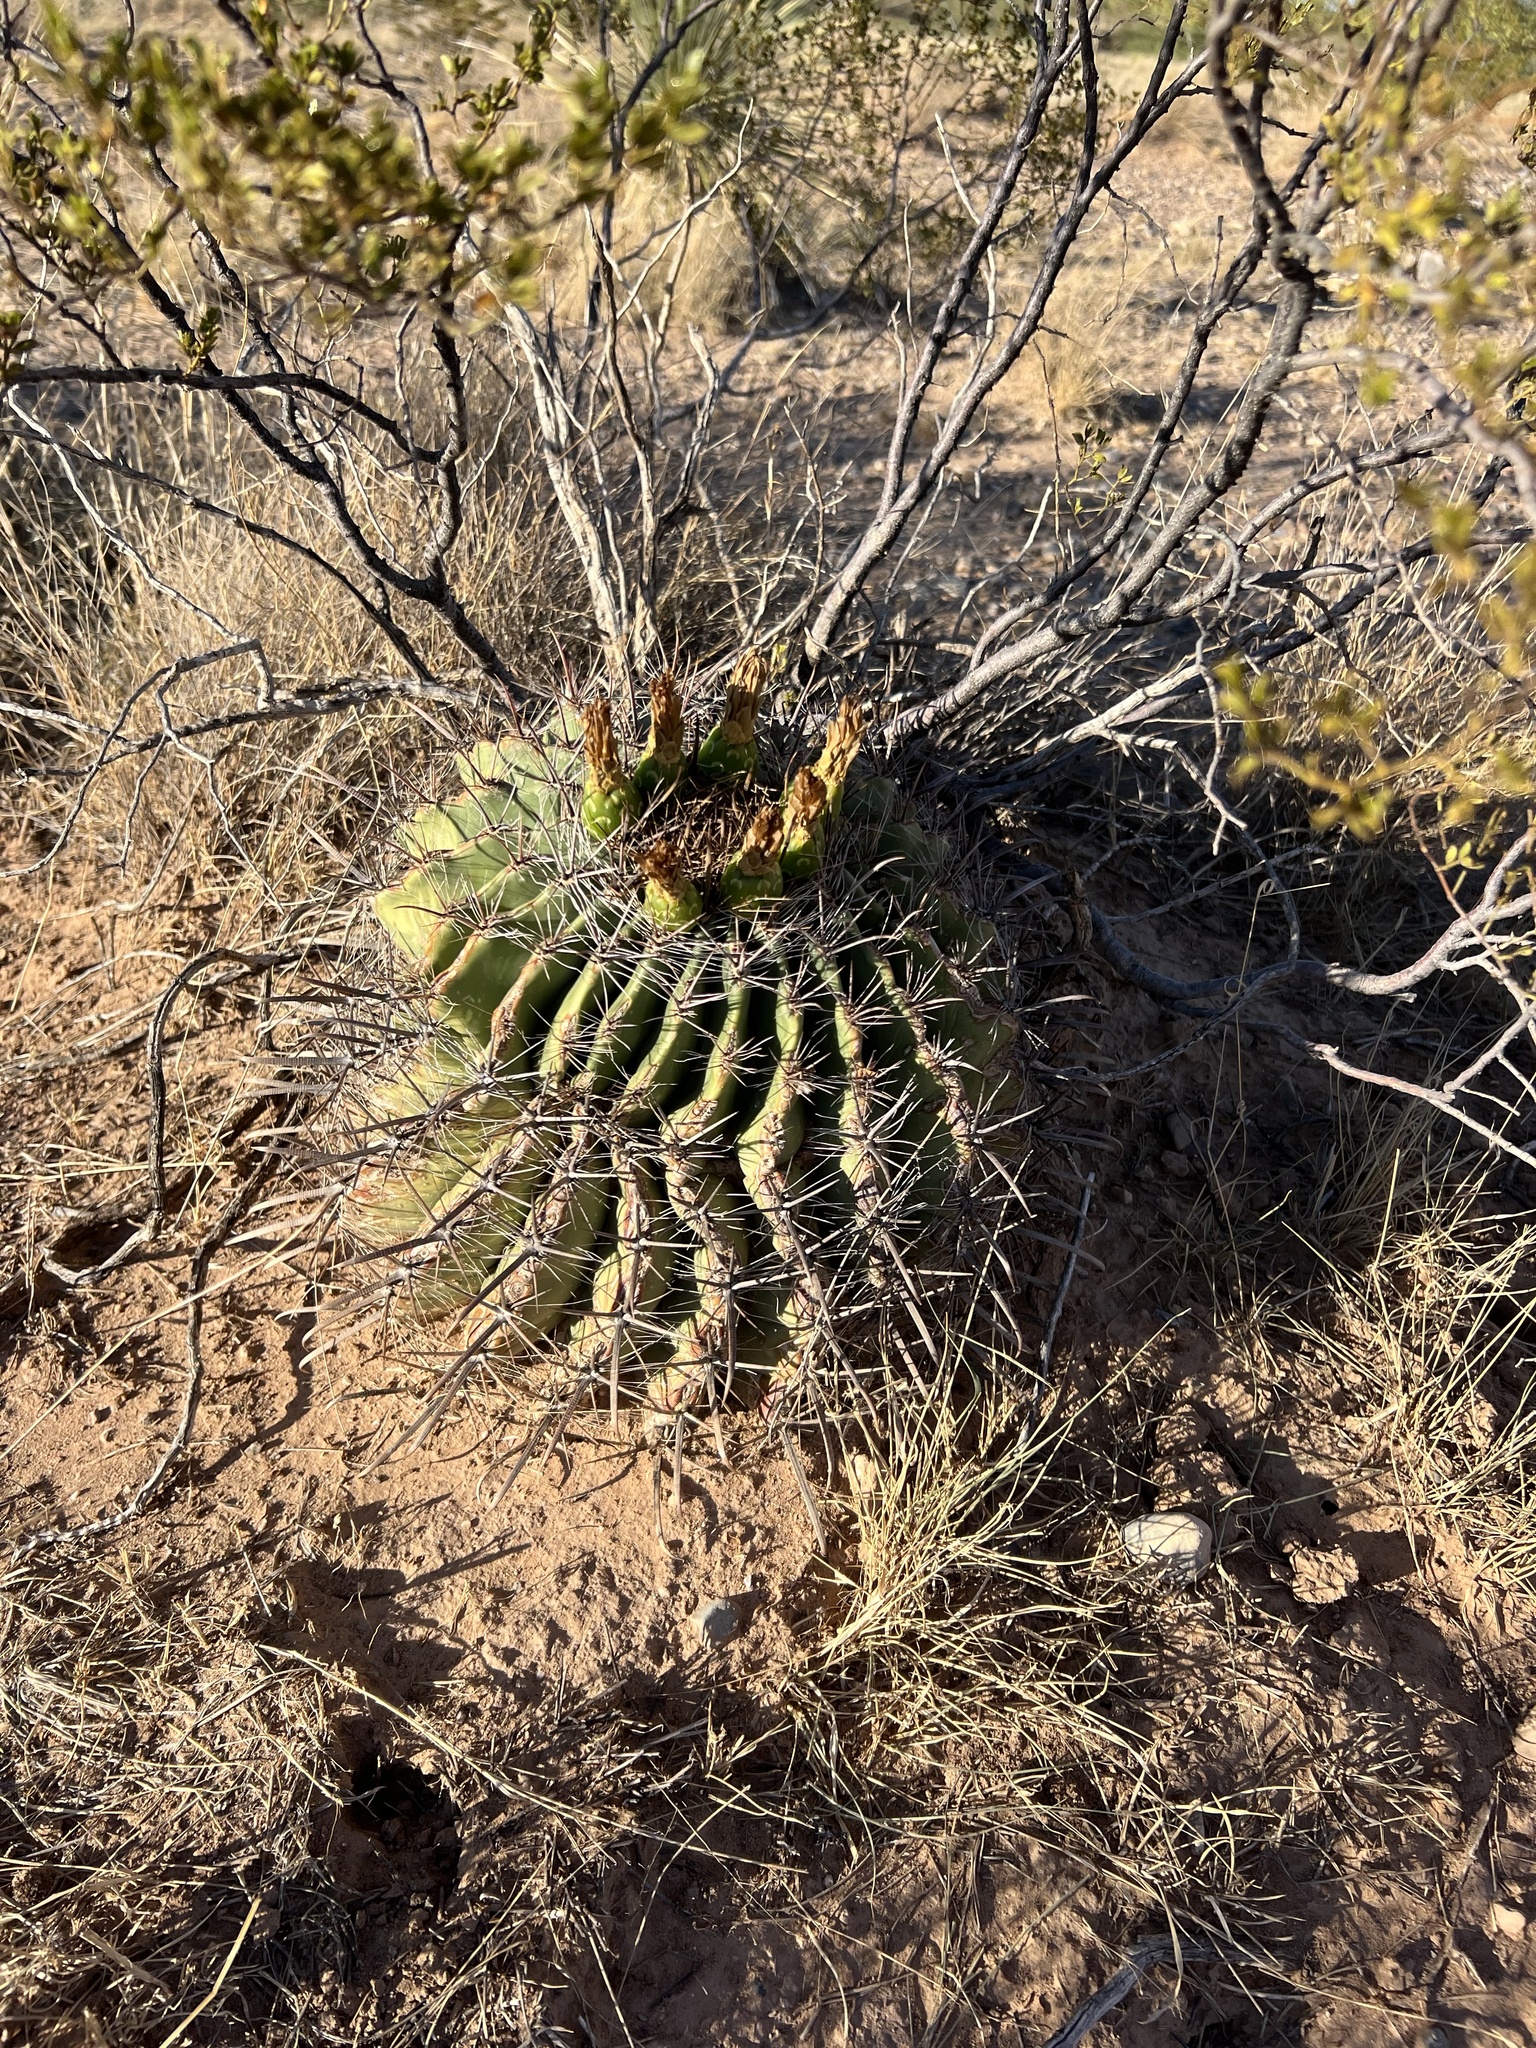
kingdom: Plantae
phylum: Tracheophyta
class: Magnoliopsida
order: Caryophyllales
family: Cactaceae
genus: Ferocactus
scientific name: Ferocactus wislizeni
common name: Candy barrel cactus
